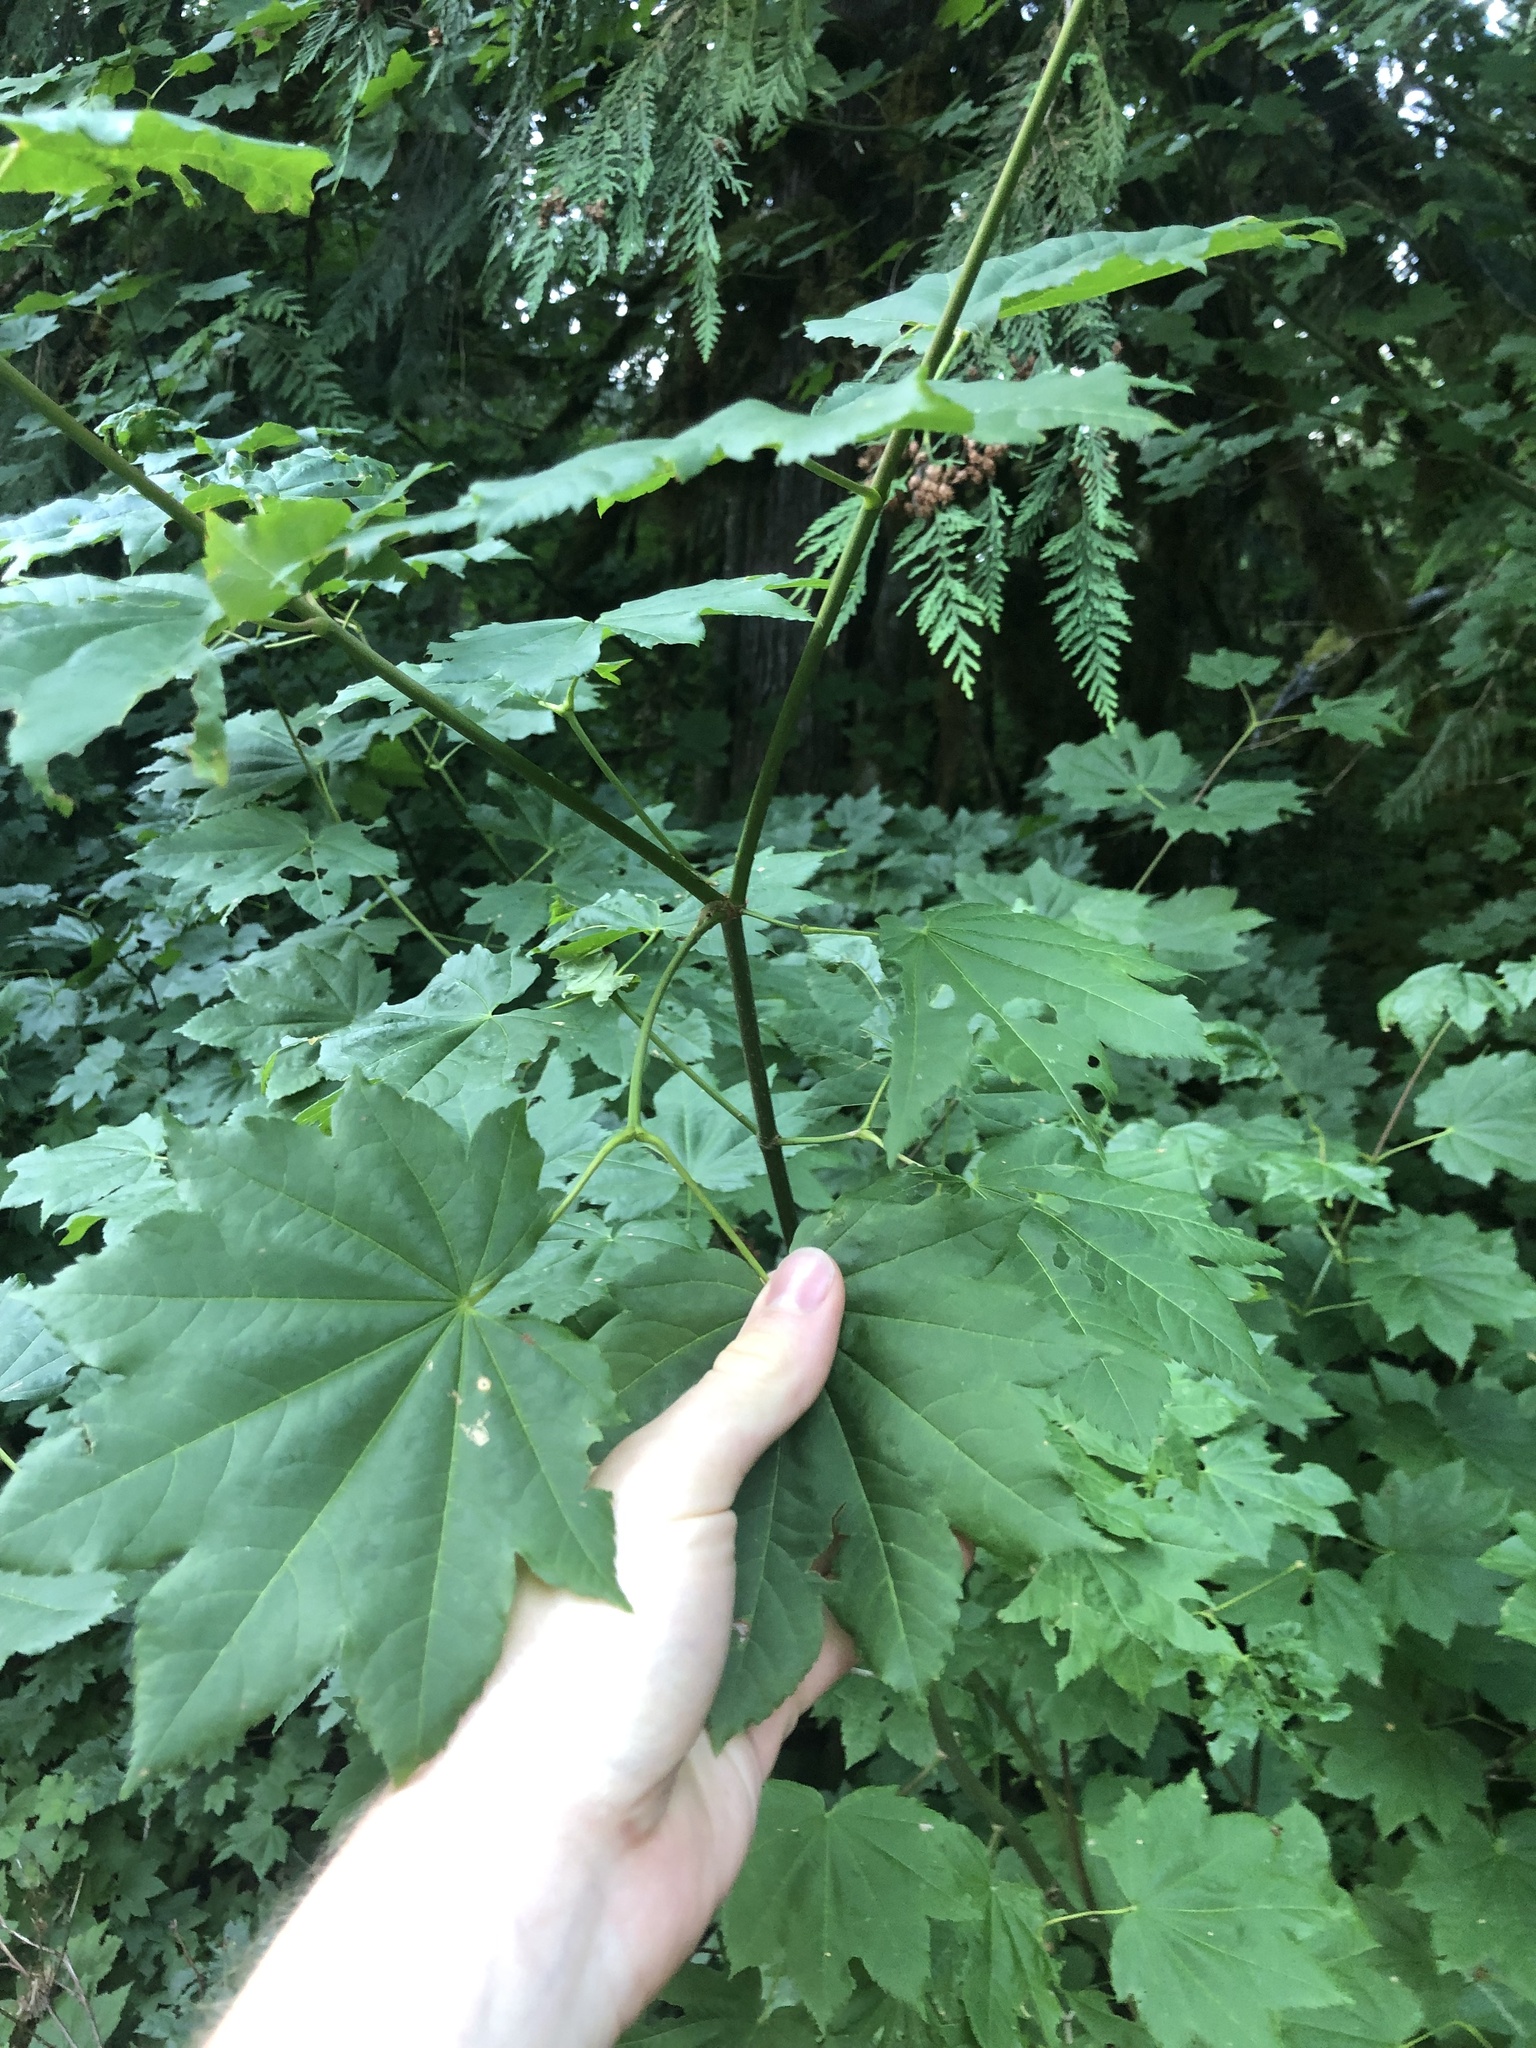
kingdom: Plantae
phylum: Tracheophyta
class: Magnoliopsida
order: Sapindales
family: Sapindaceae
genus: Acer
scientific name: Acer circinatum
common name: Vine maple
